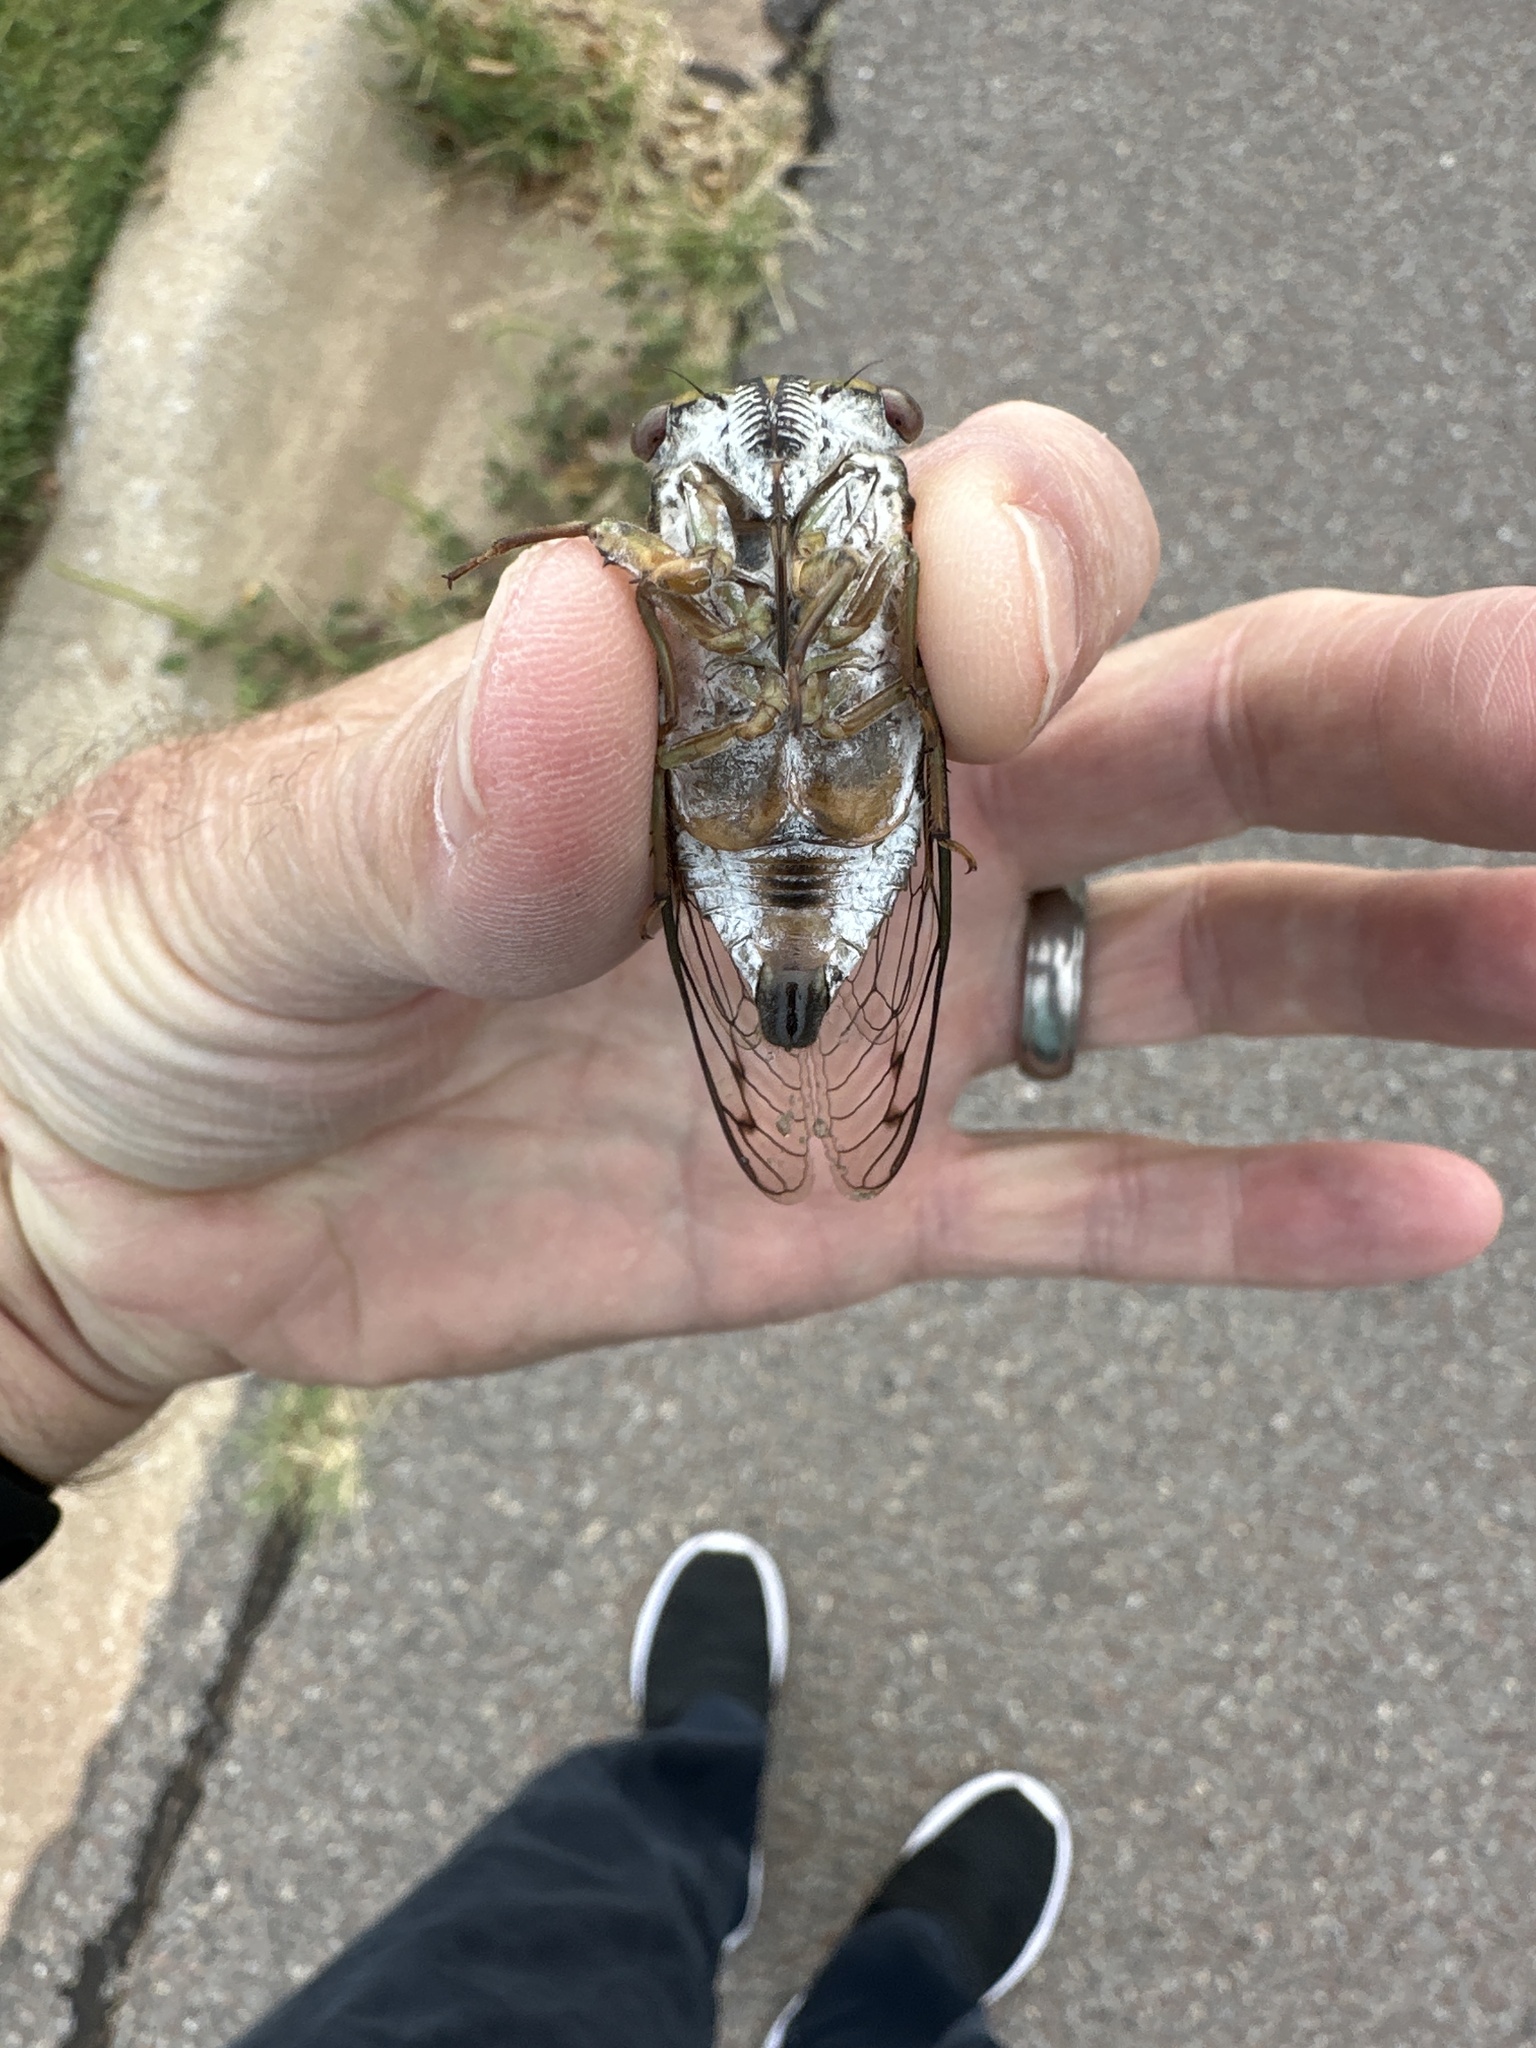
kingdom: Animalia
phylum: Arthropoda
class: Insecta
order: Hemiptera
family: Cicadidae
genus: Neotibicen
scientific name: Neotibicen pruinosus
